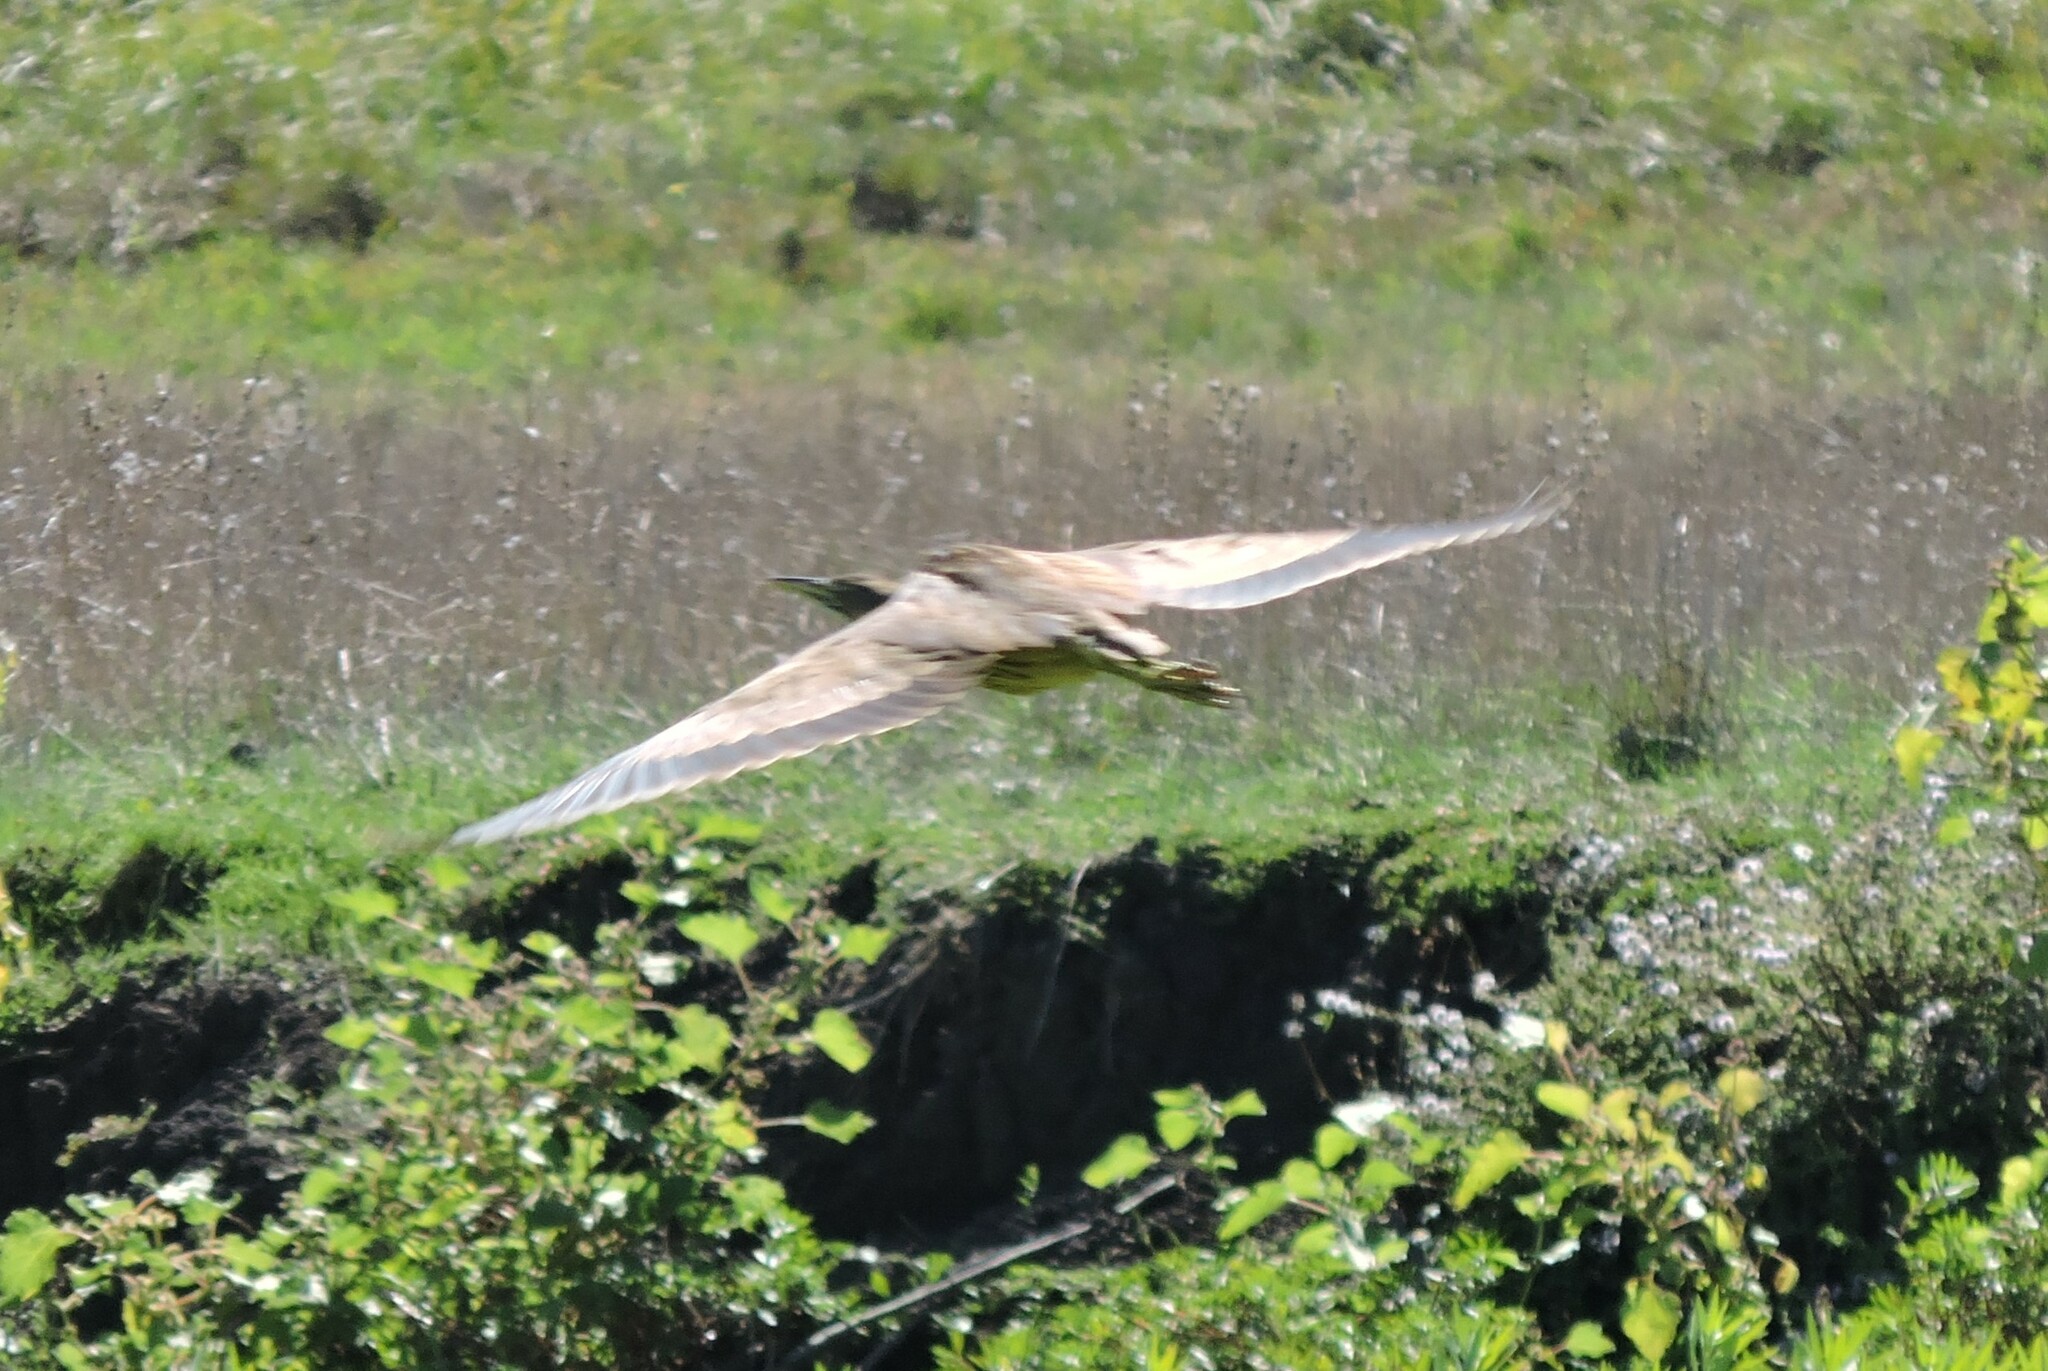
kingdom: Animalia
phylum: Chordata
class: Aves
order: Pelecaniformes
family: Ardeidae
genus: Botaurus
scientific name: Botaurus lentiginosus
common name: American bittern
